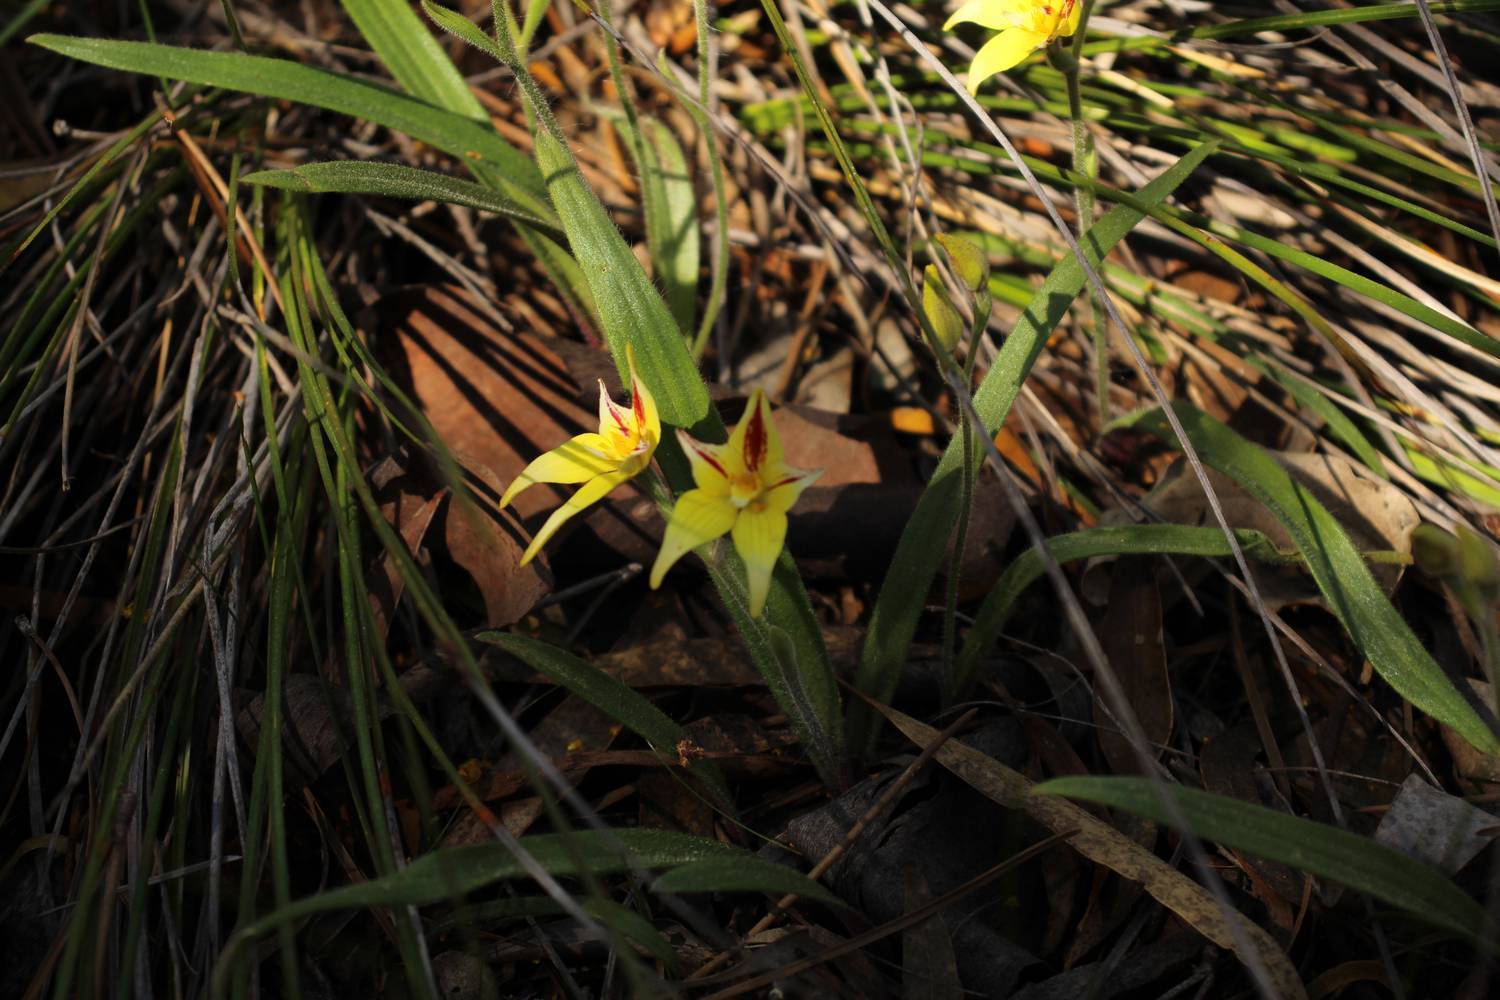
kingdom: Plantae
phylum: Tracheophyta
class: Liliopsida
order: Asparagales
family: Orchidaceae
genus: Caladenia
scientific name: Caladenia flava
